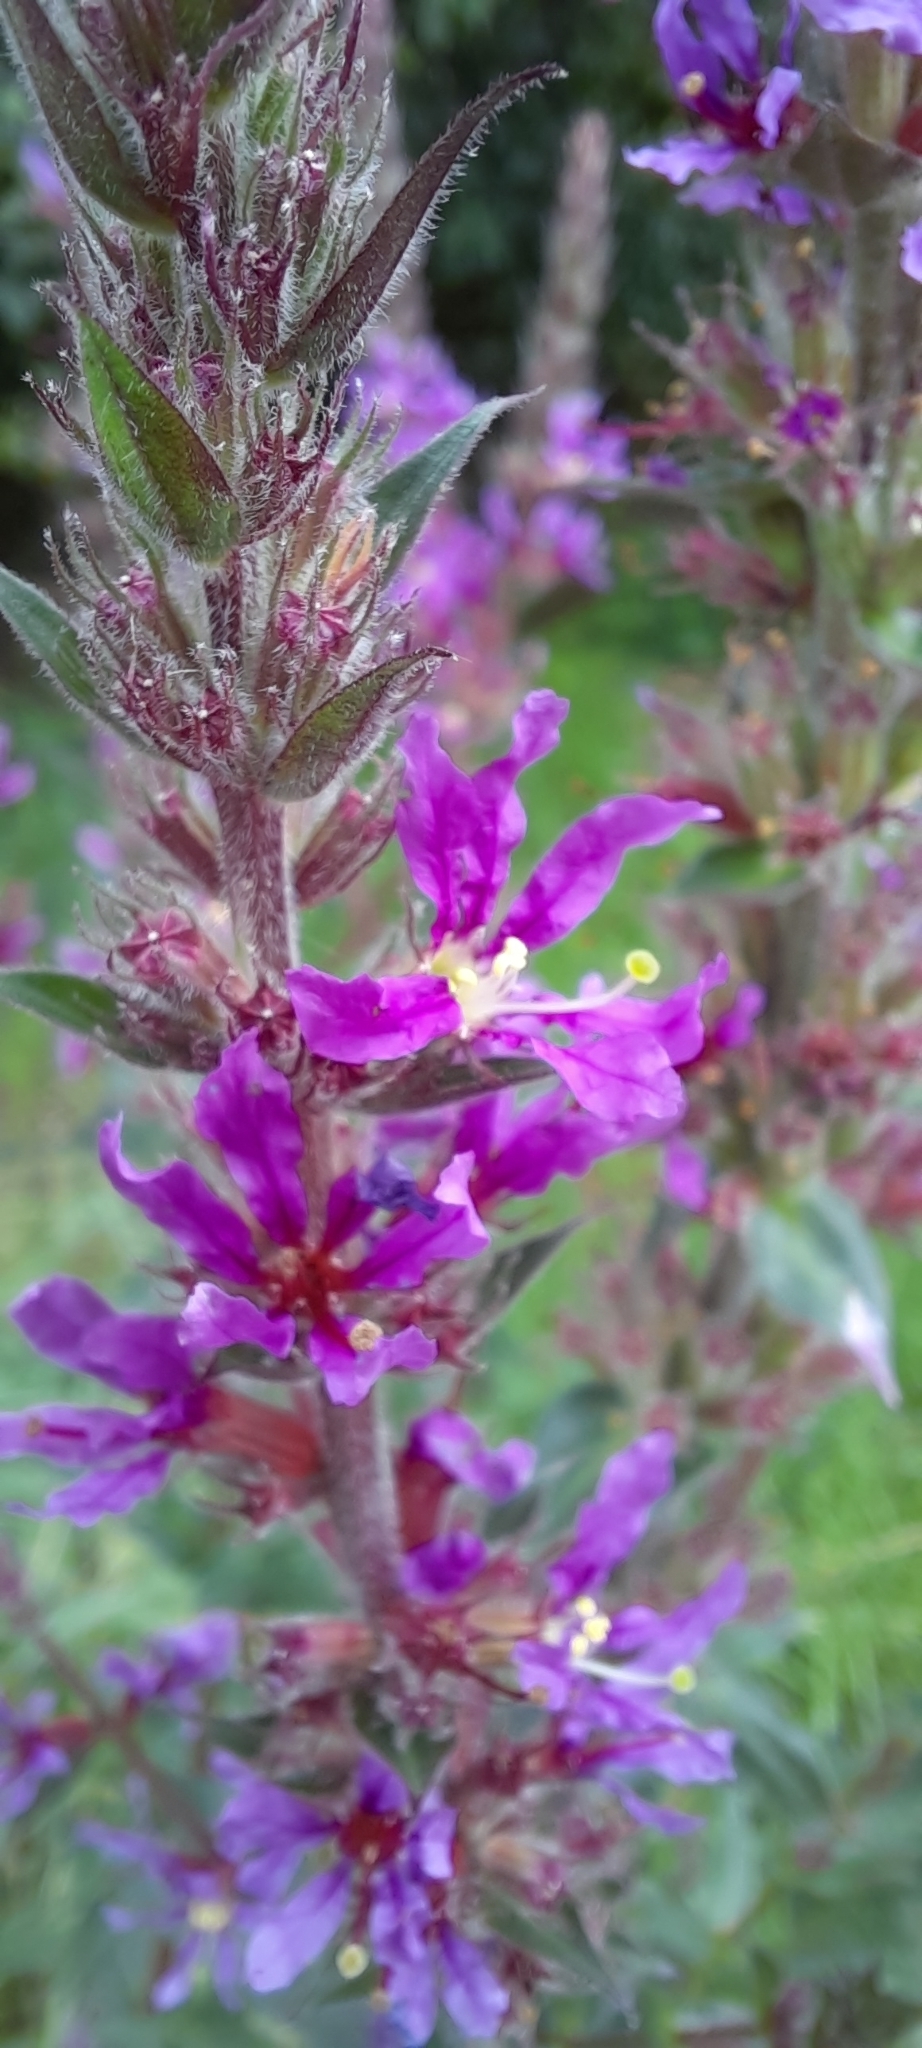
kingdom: Plantae
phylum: Tracheophyta
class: Magnoliopsida
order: Myrtales
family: Lythraceae
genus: Lythrum
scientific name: Lythrum salicaria
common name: Purple loosestrife
